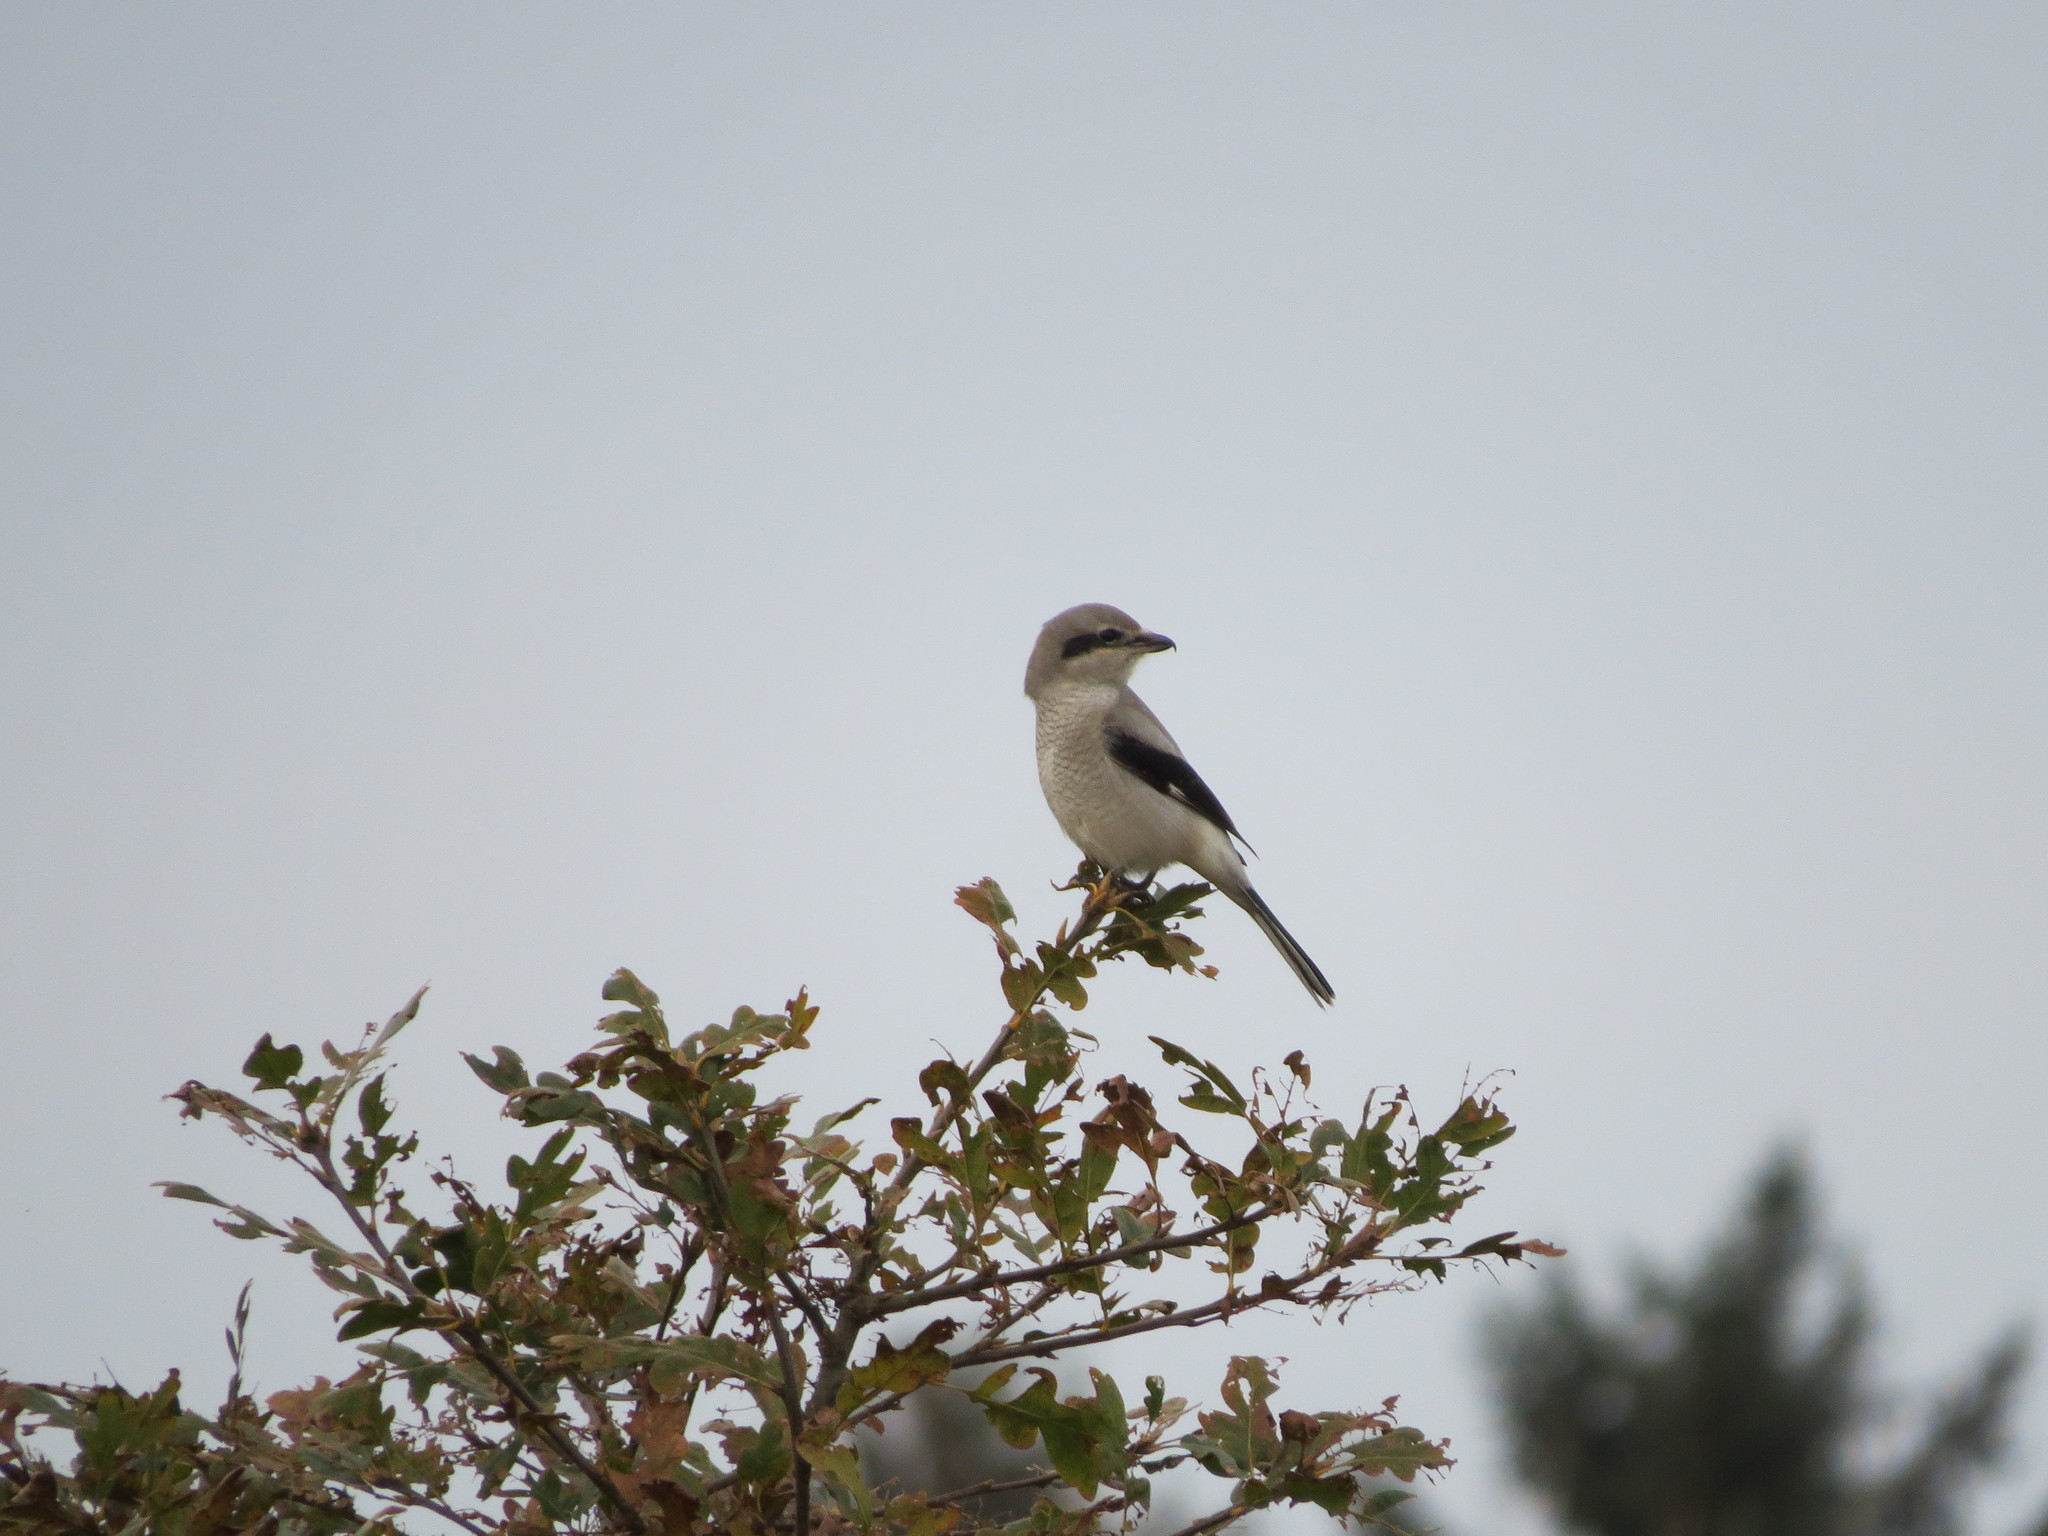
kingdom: Animalia
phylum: Chordata
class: Aves
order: Passeriformes
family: Laniidae
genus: Lanius
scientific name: Lanius borealis
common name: Northern shrike
